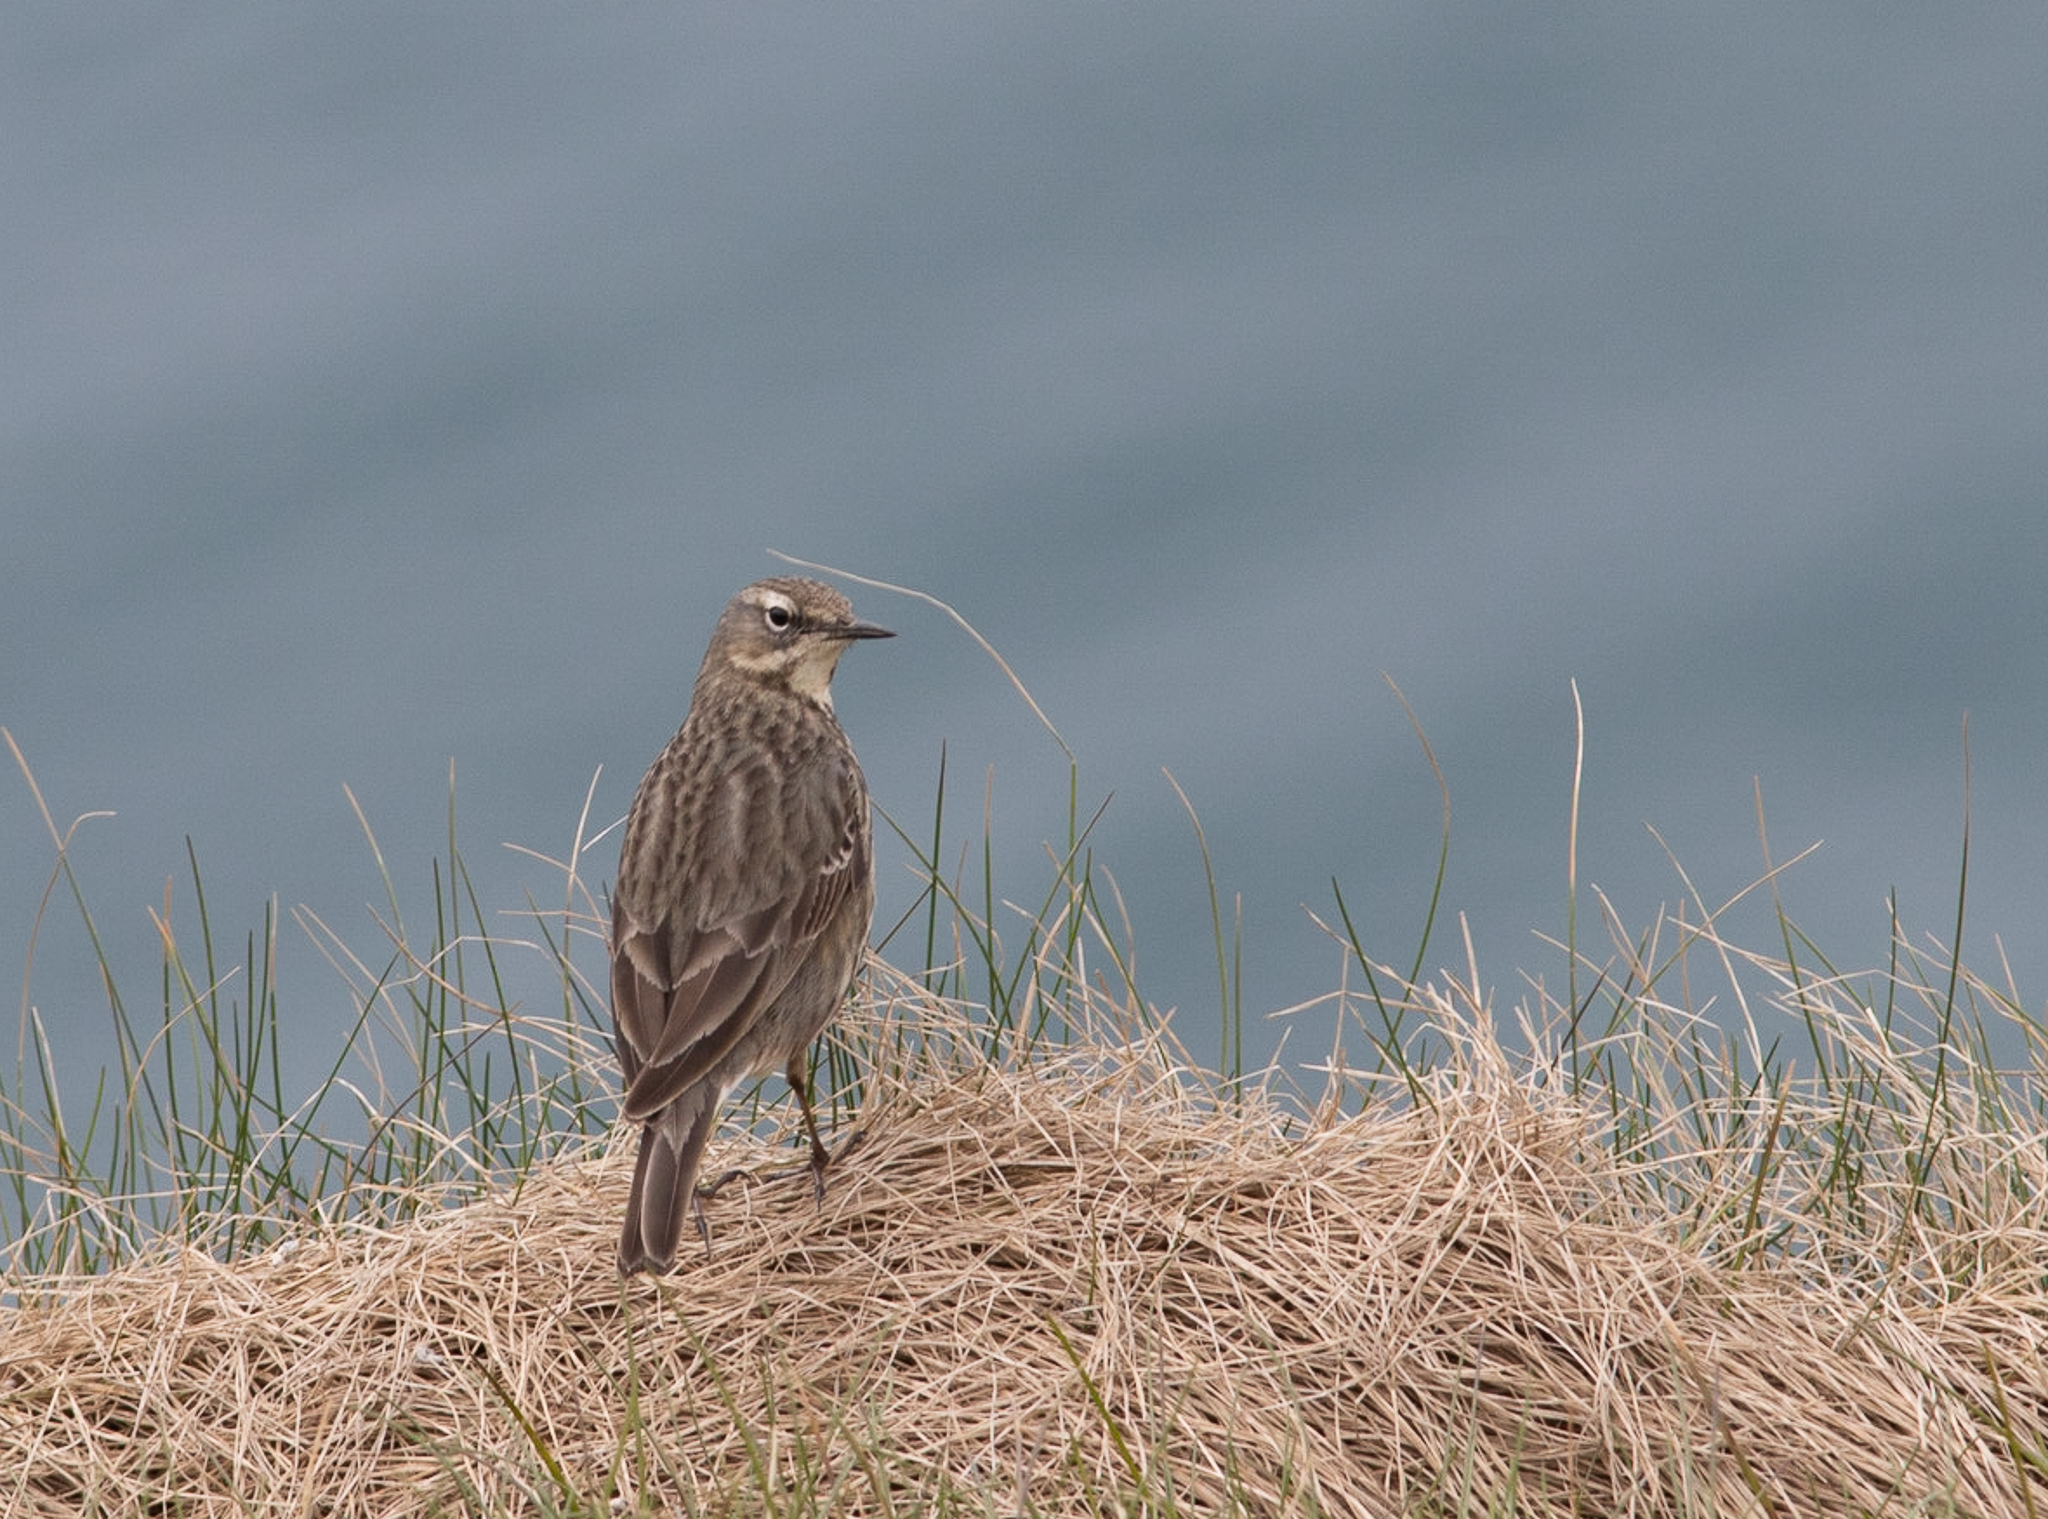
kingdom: Animalia
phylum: Chordata
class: Aves
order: Passeriformes
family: Motacillidae
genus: Anthus
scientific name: Anthus petrosus
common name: Eurasian rock pipit
